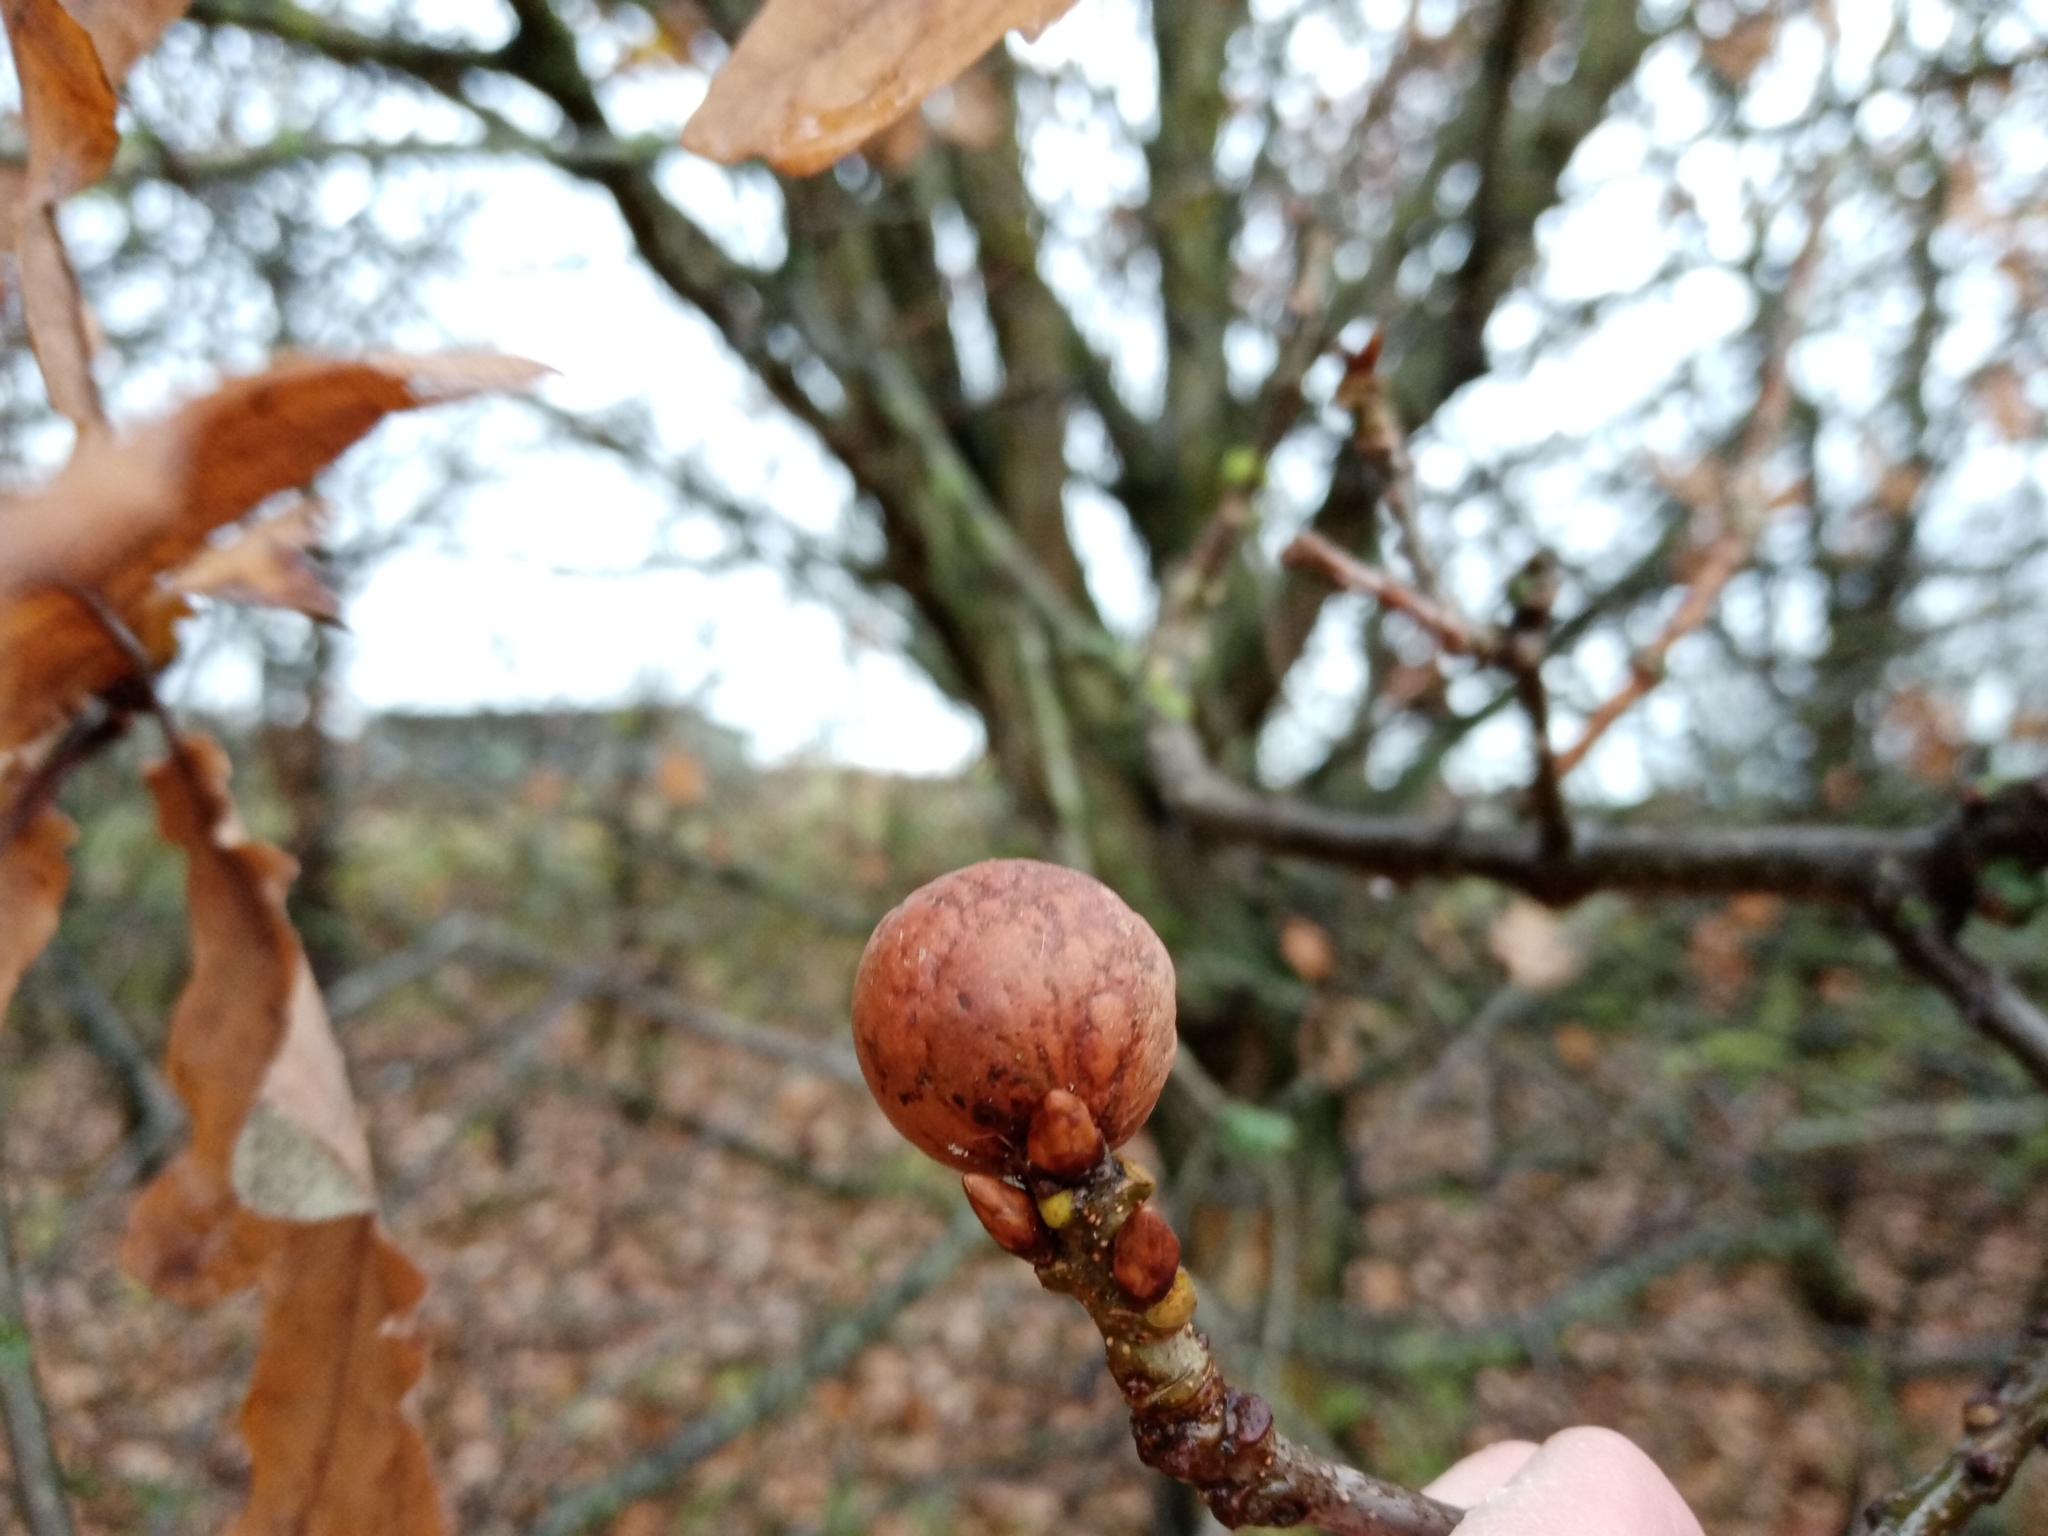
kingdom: Animalia
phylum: Arthropoda
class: Insecta
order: Hymenoptera
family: Cynipidae
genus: Andricus
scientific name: Andricus kollari
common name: Marble gall
